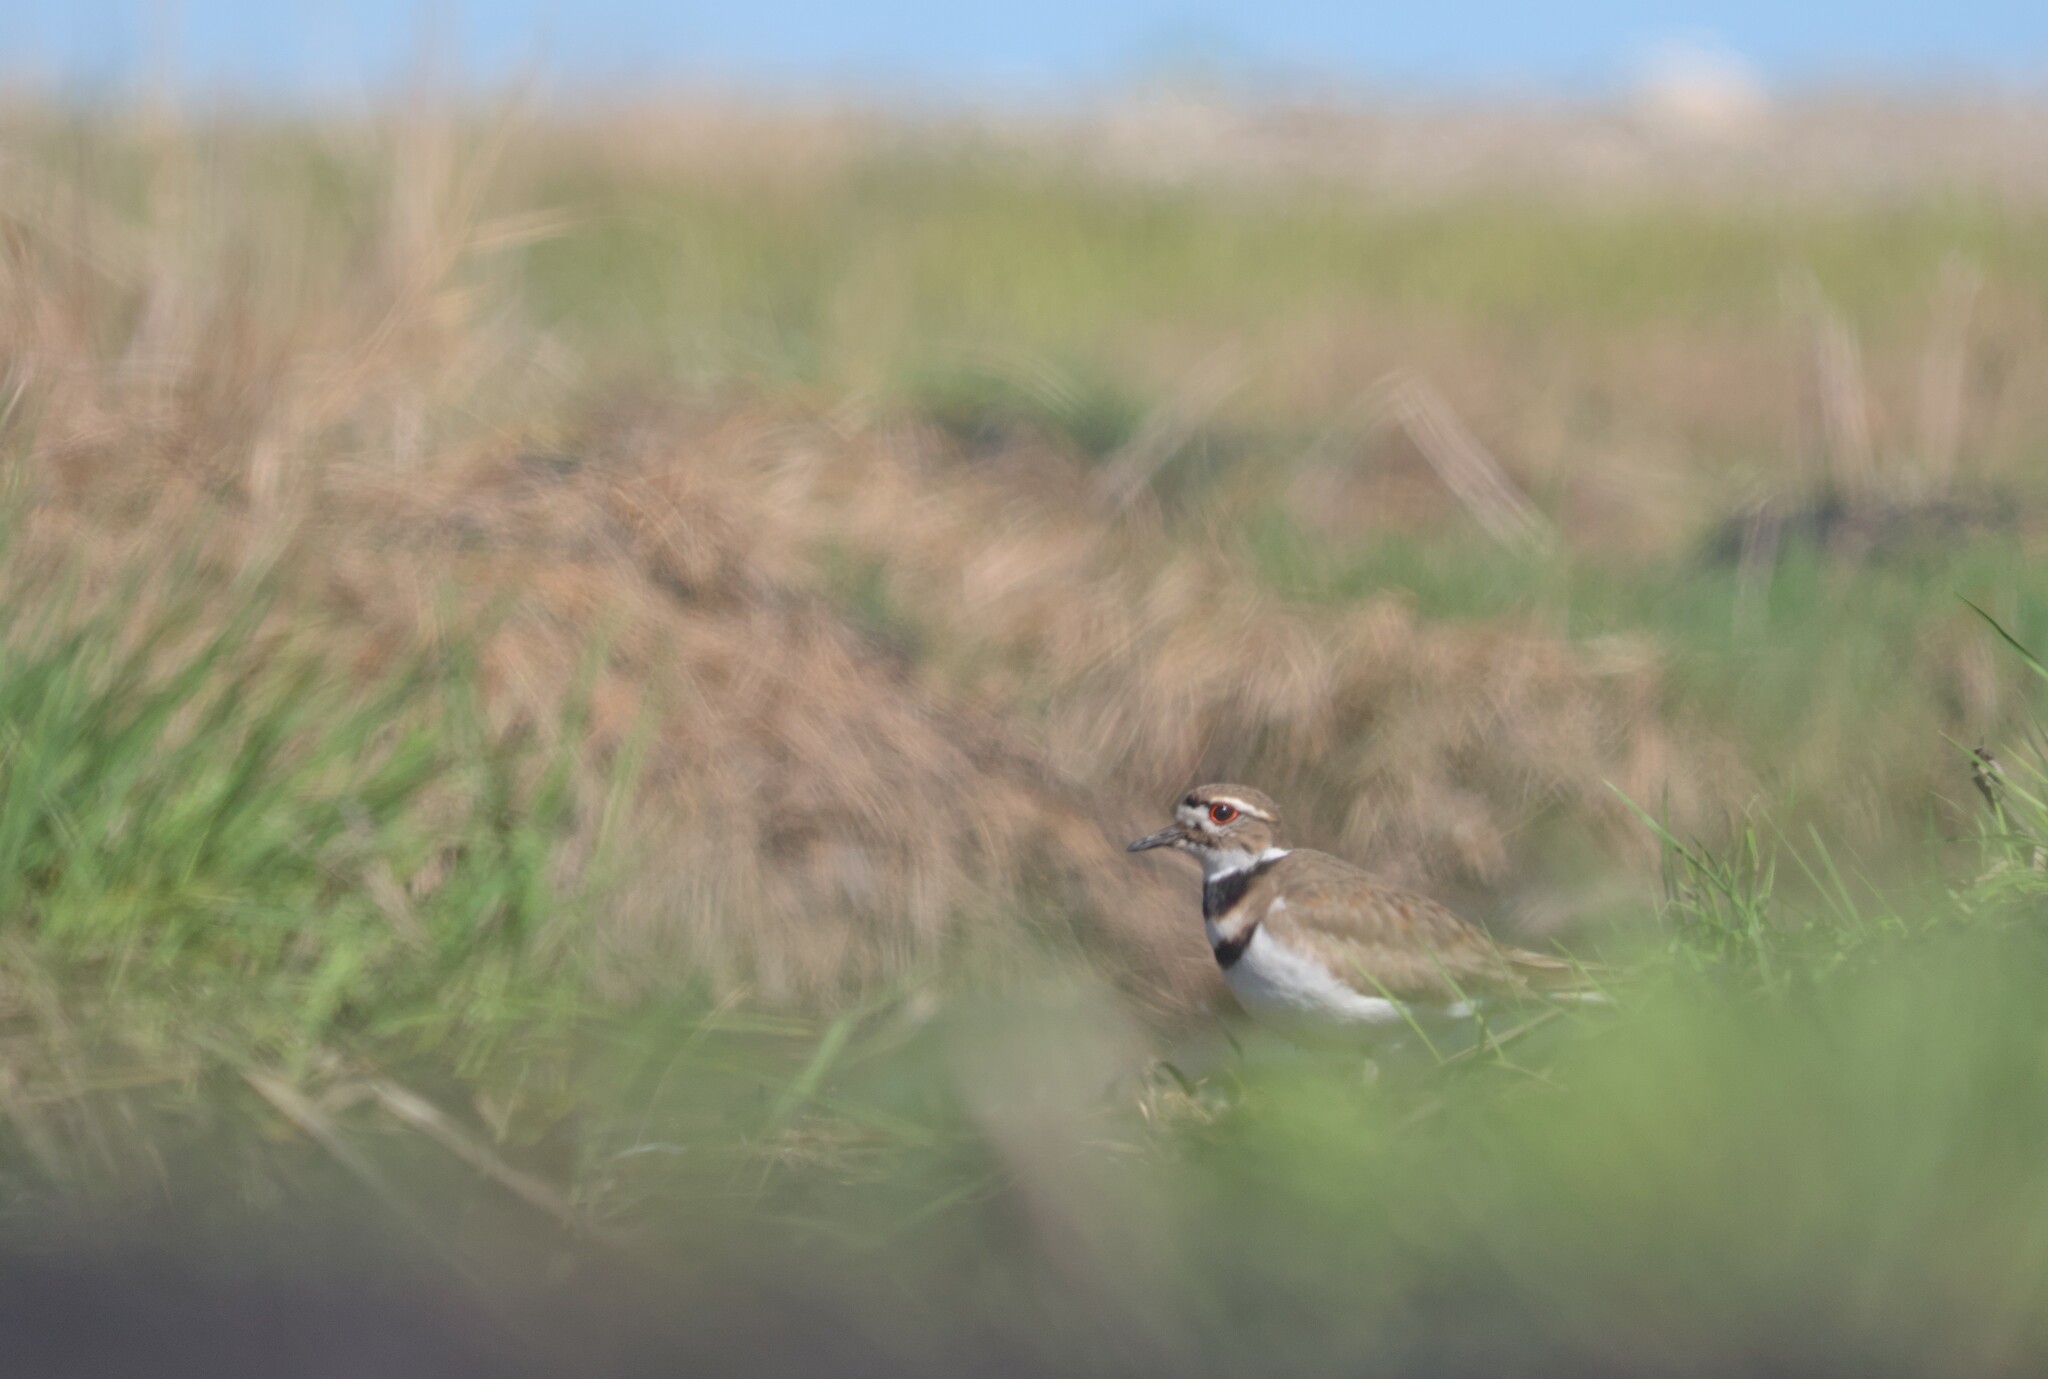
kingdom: Animalia
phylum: Chordata
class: Aves
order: Charadriiformes
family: Charadriidae
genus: Charadrius
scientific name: Charadrius vociferus
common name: Killdeer
